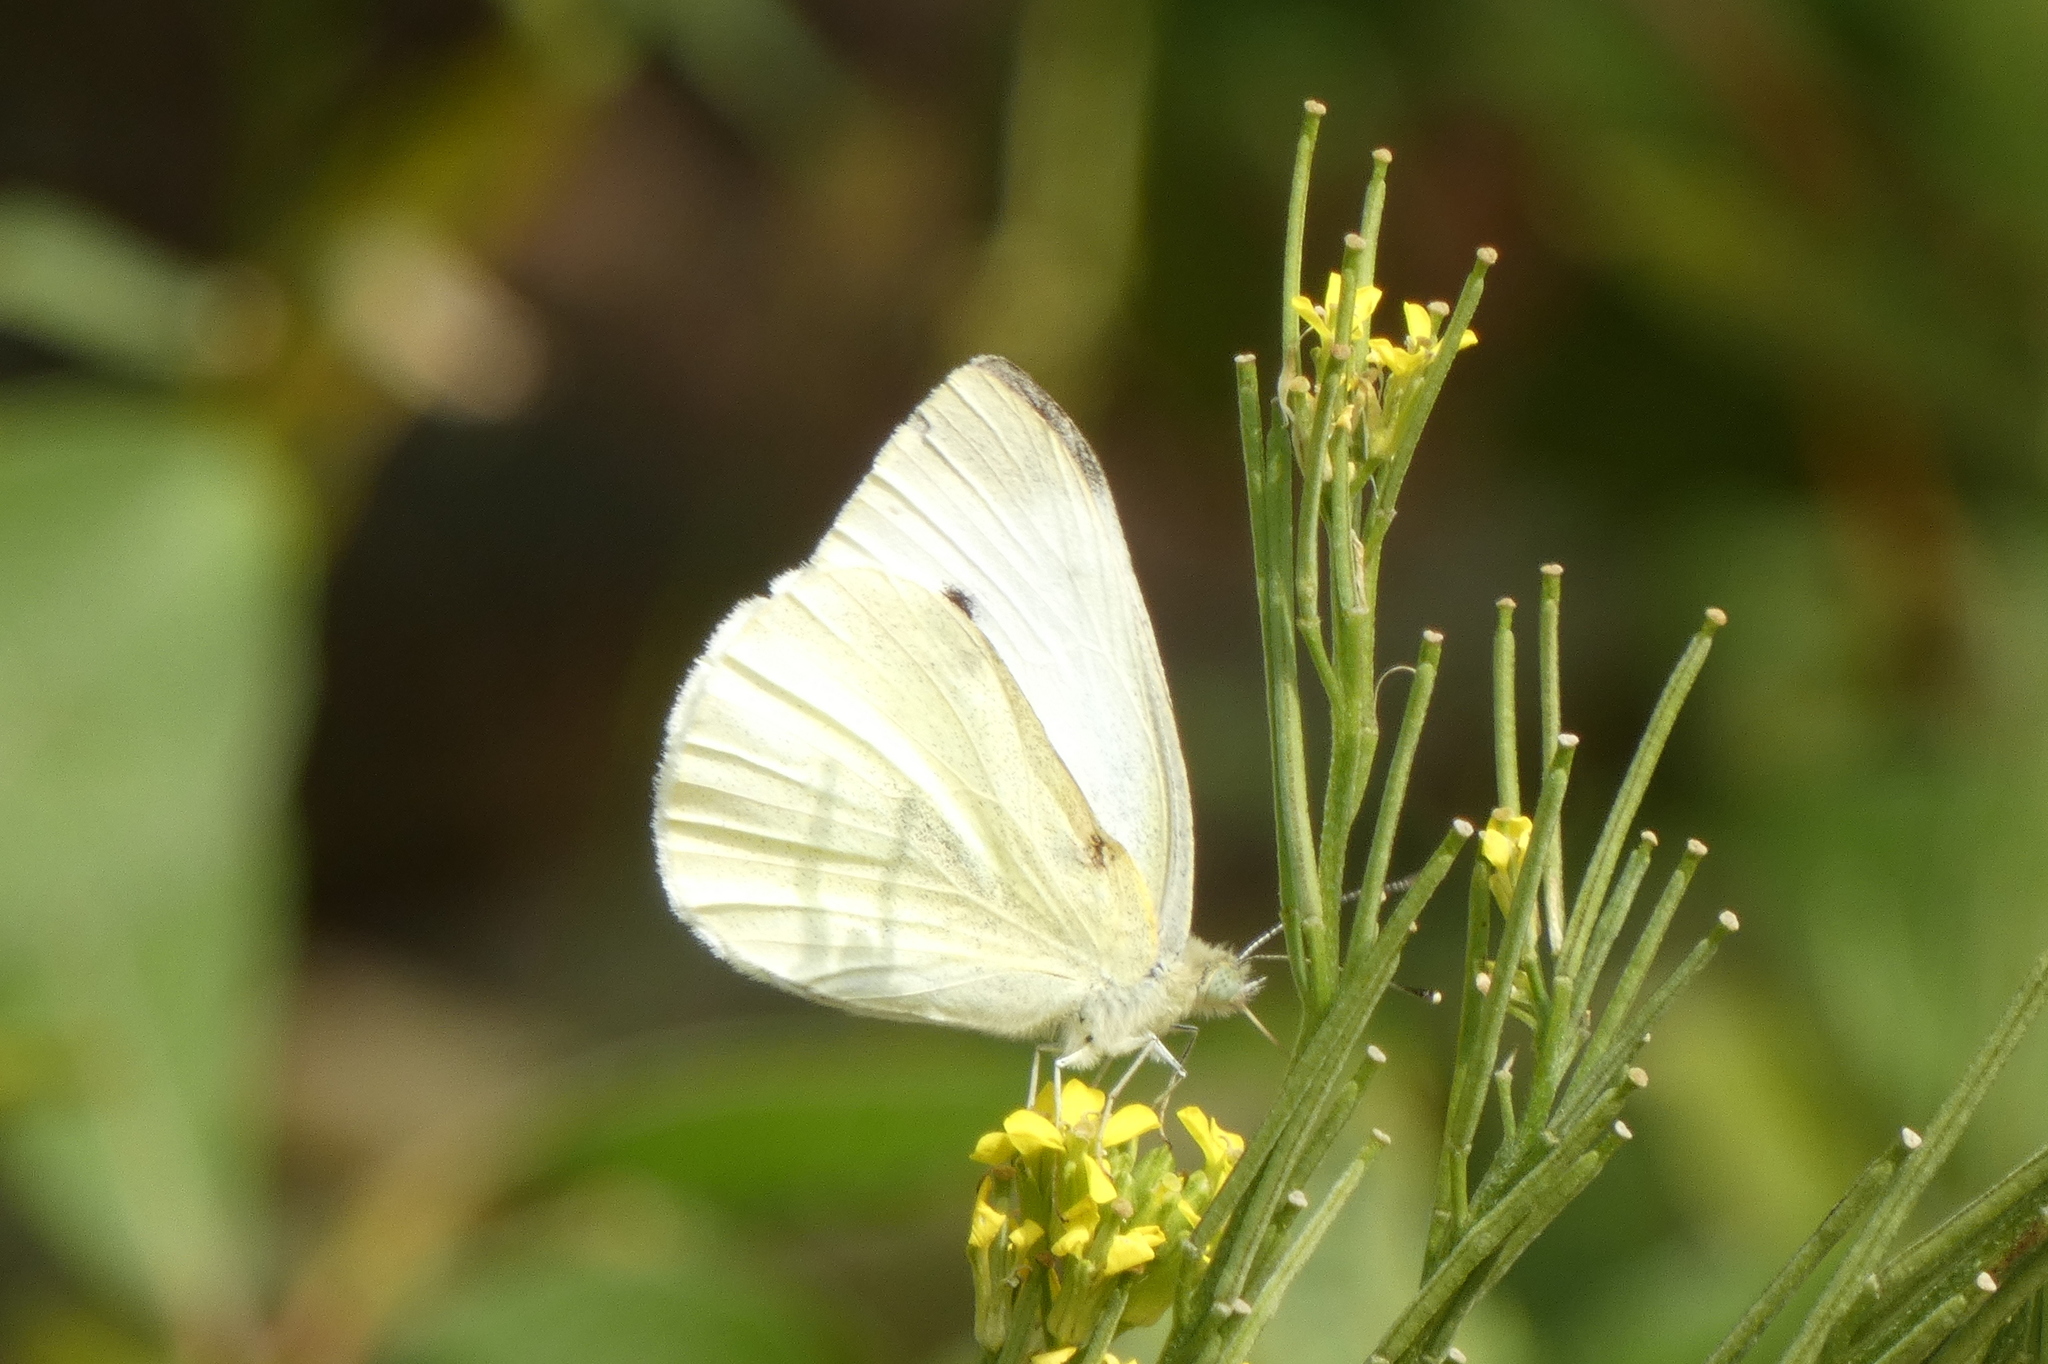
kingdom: Animalia
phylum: Arthropoda
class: Insecta
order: Lepidoptera
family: Pieridae
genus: Pieris
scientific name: Pieris rapae
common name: Small white
